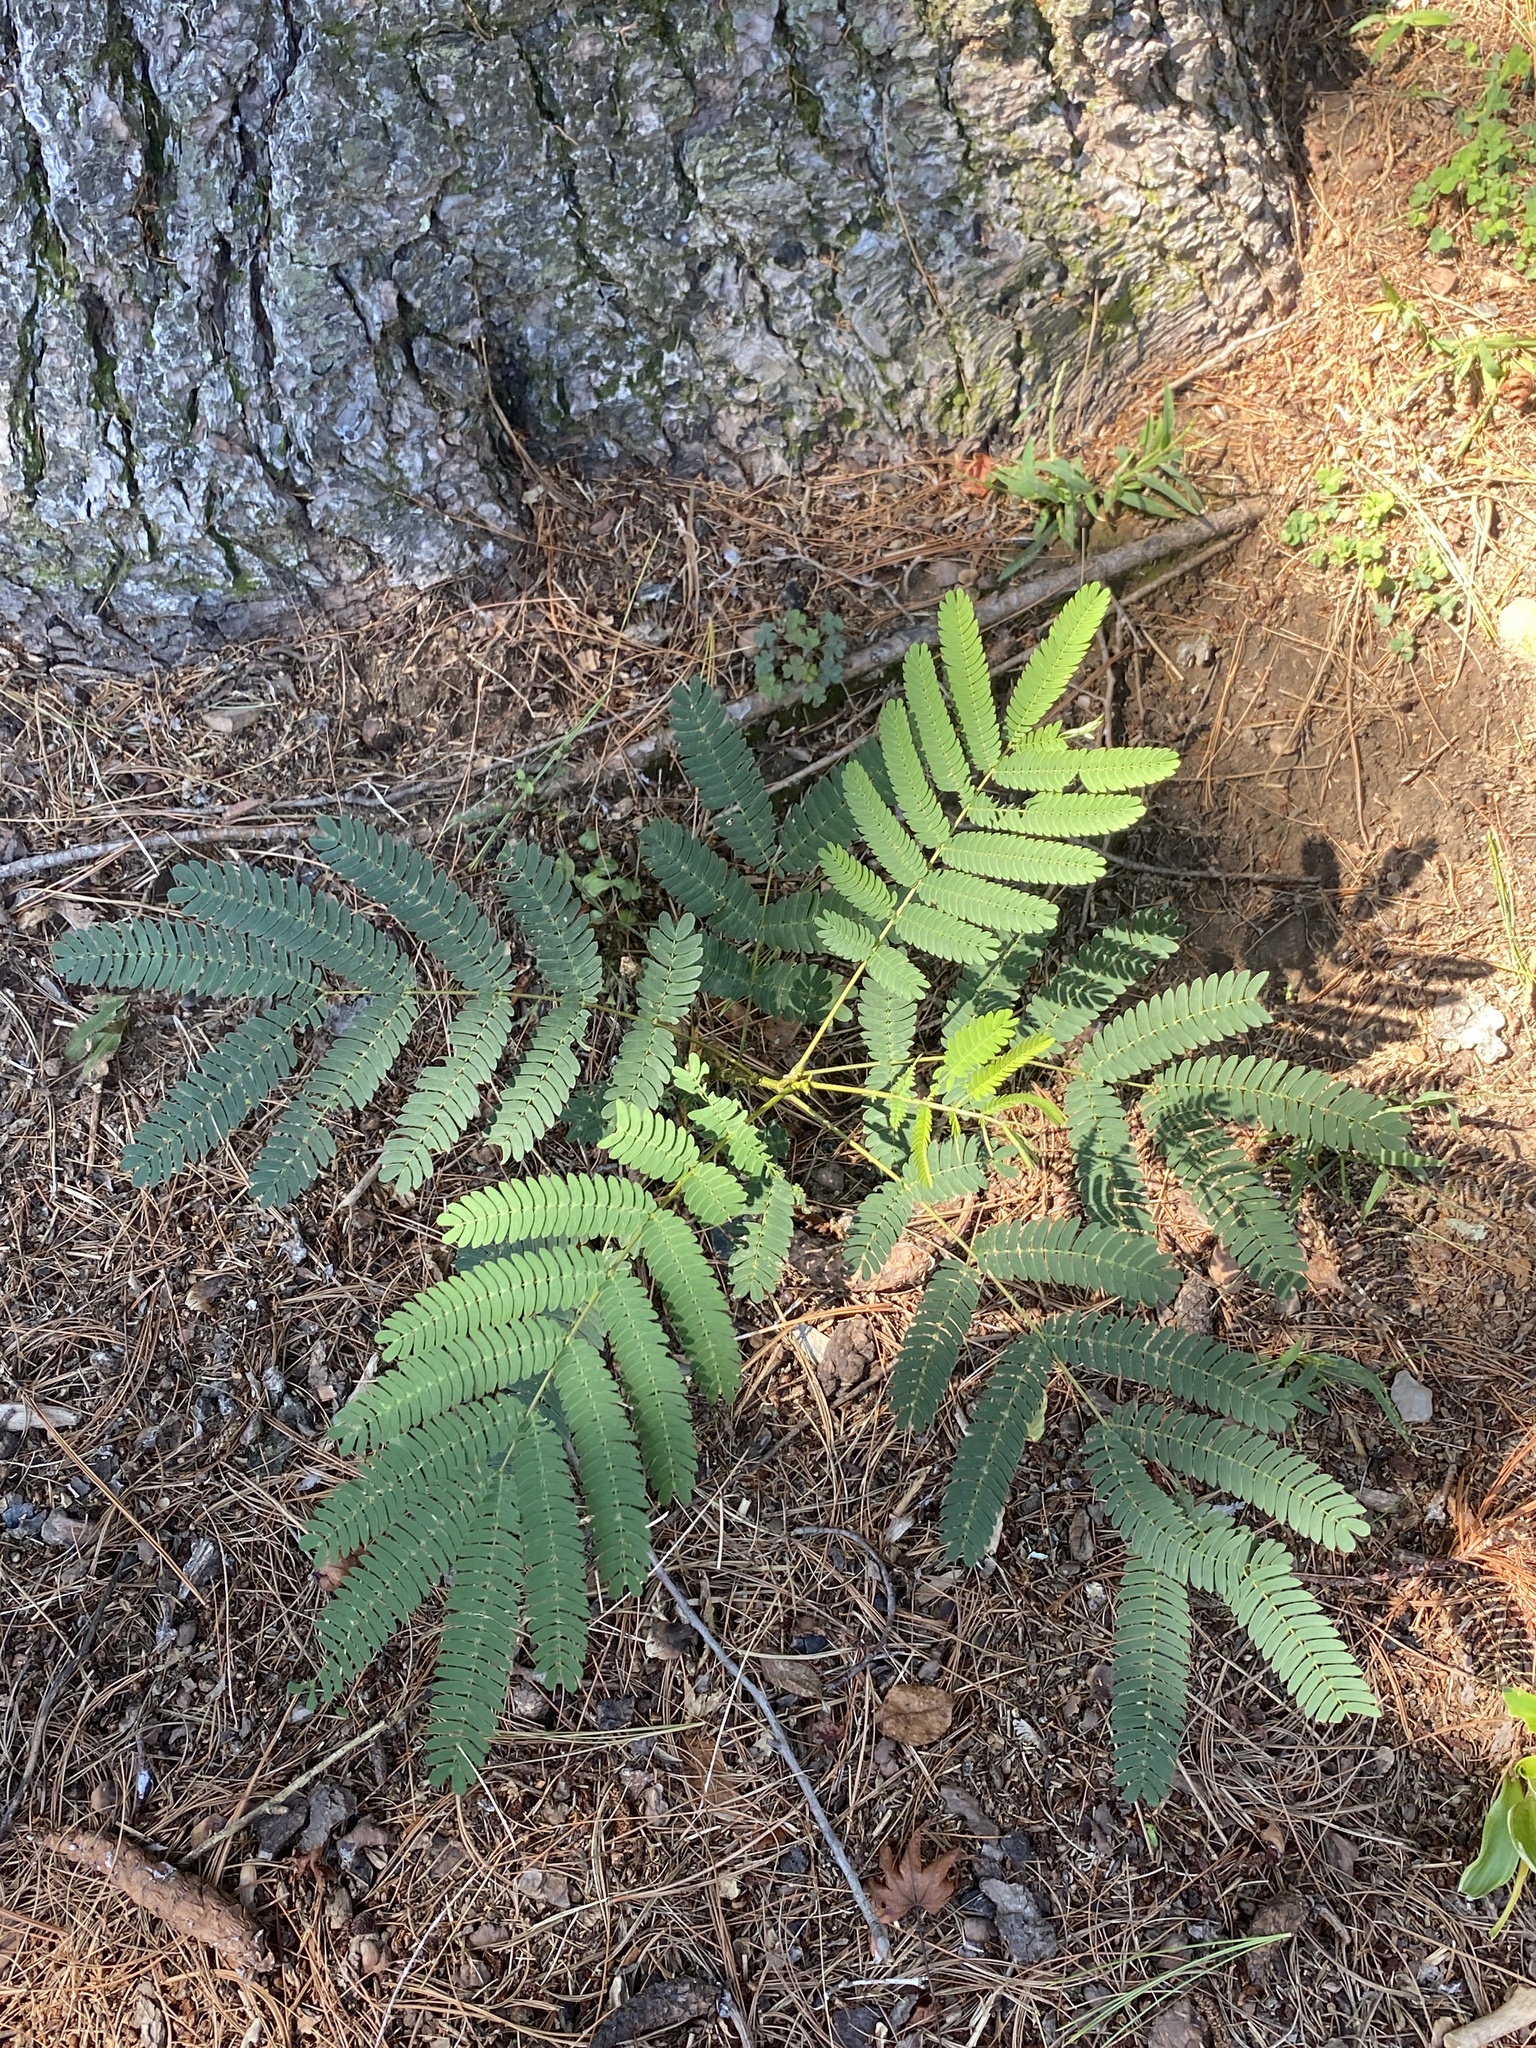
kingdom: Plantae
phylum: Tracheophyta
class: Magnoliopsida
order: Fabales
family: Fabaceae
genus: Albizia
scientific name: Albizia julibrissin
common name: Silktree
